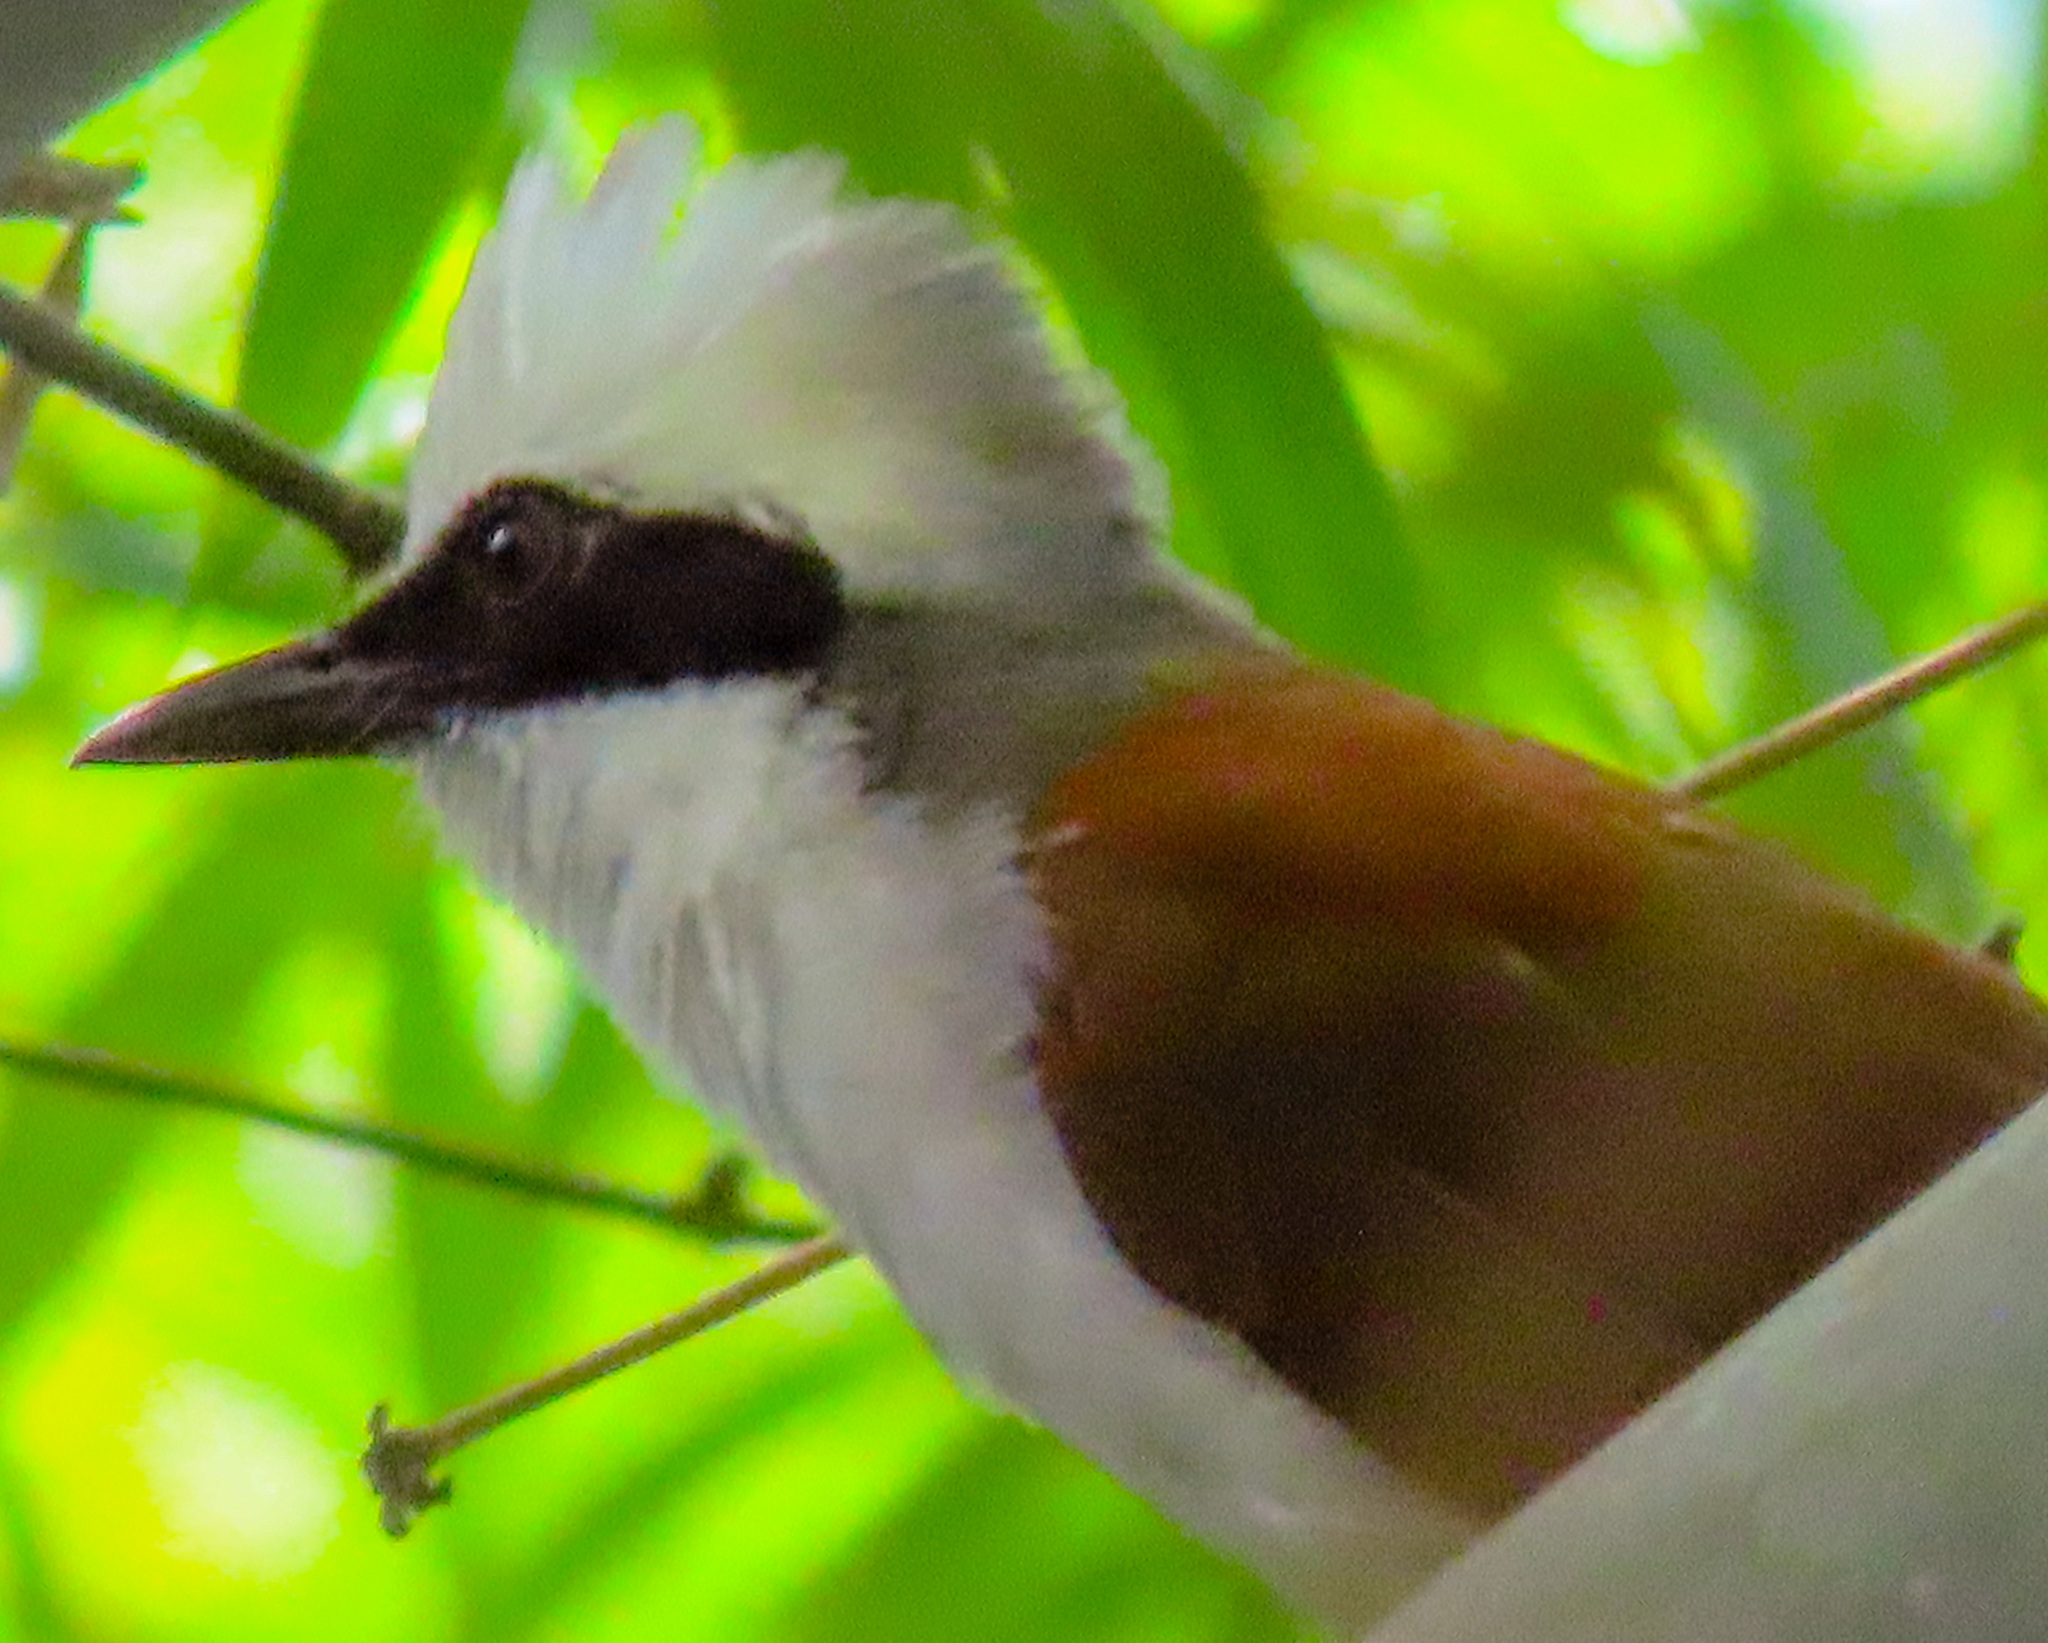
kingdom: Animalia
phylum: Chordata
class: Aves
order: Passeriformes
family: Leiothrichidae
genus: Garrulax
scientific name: Garrulax leucolophus
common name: White-crested laughingthrush
